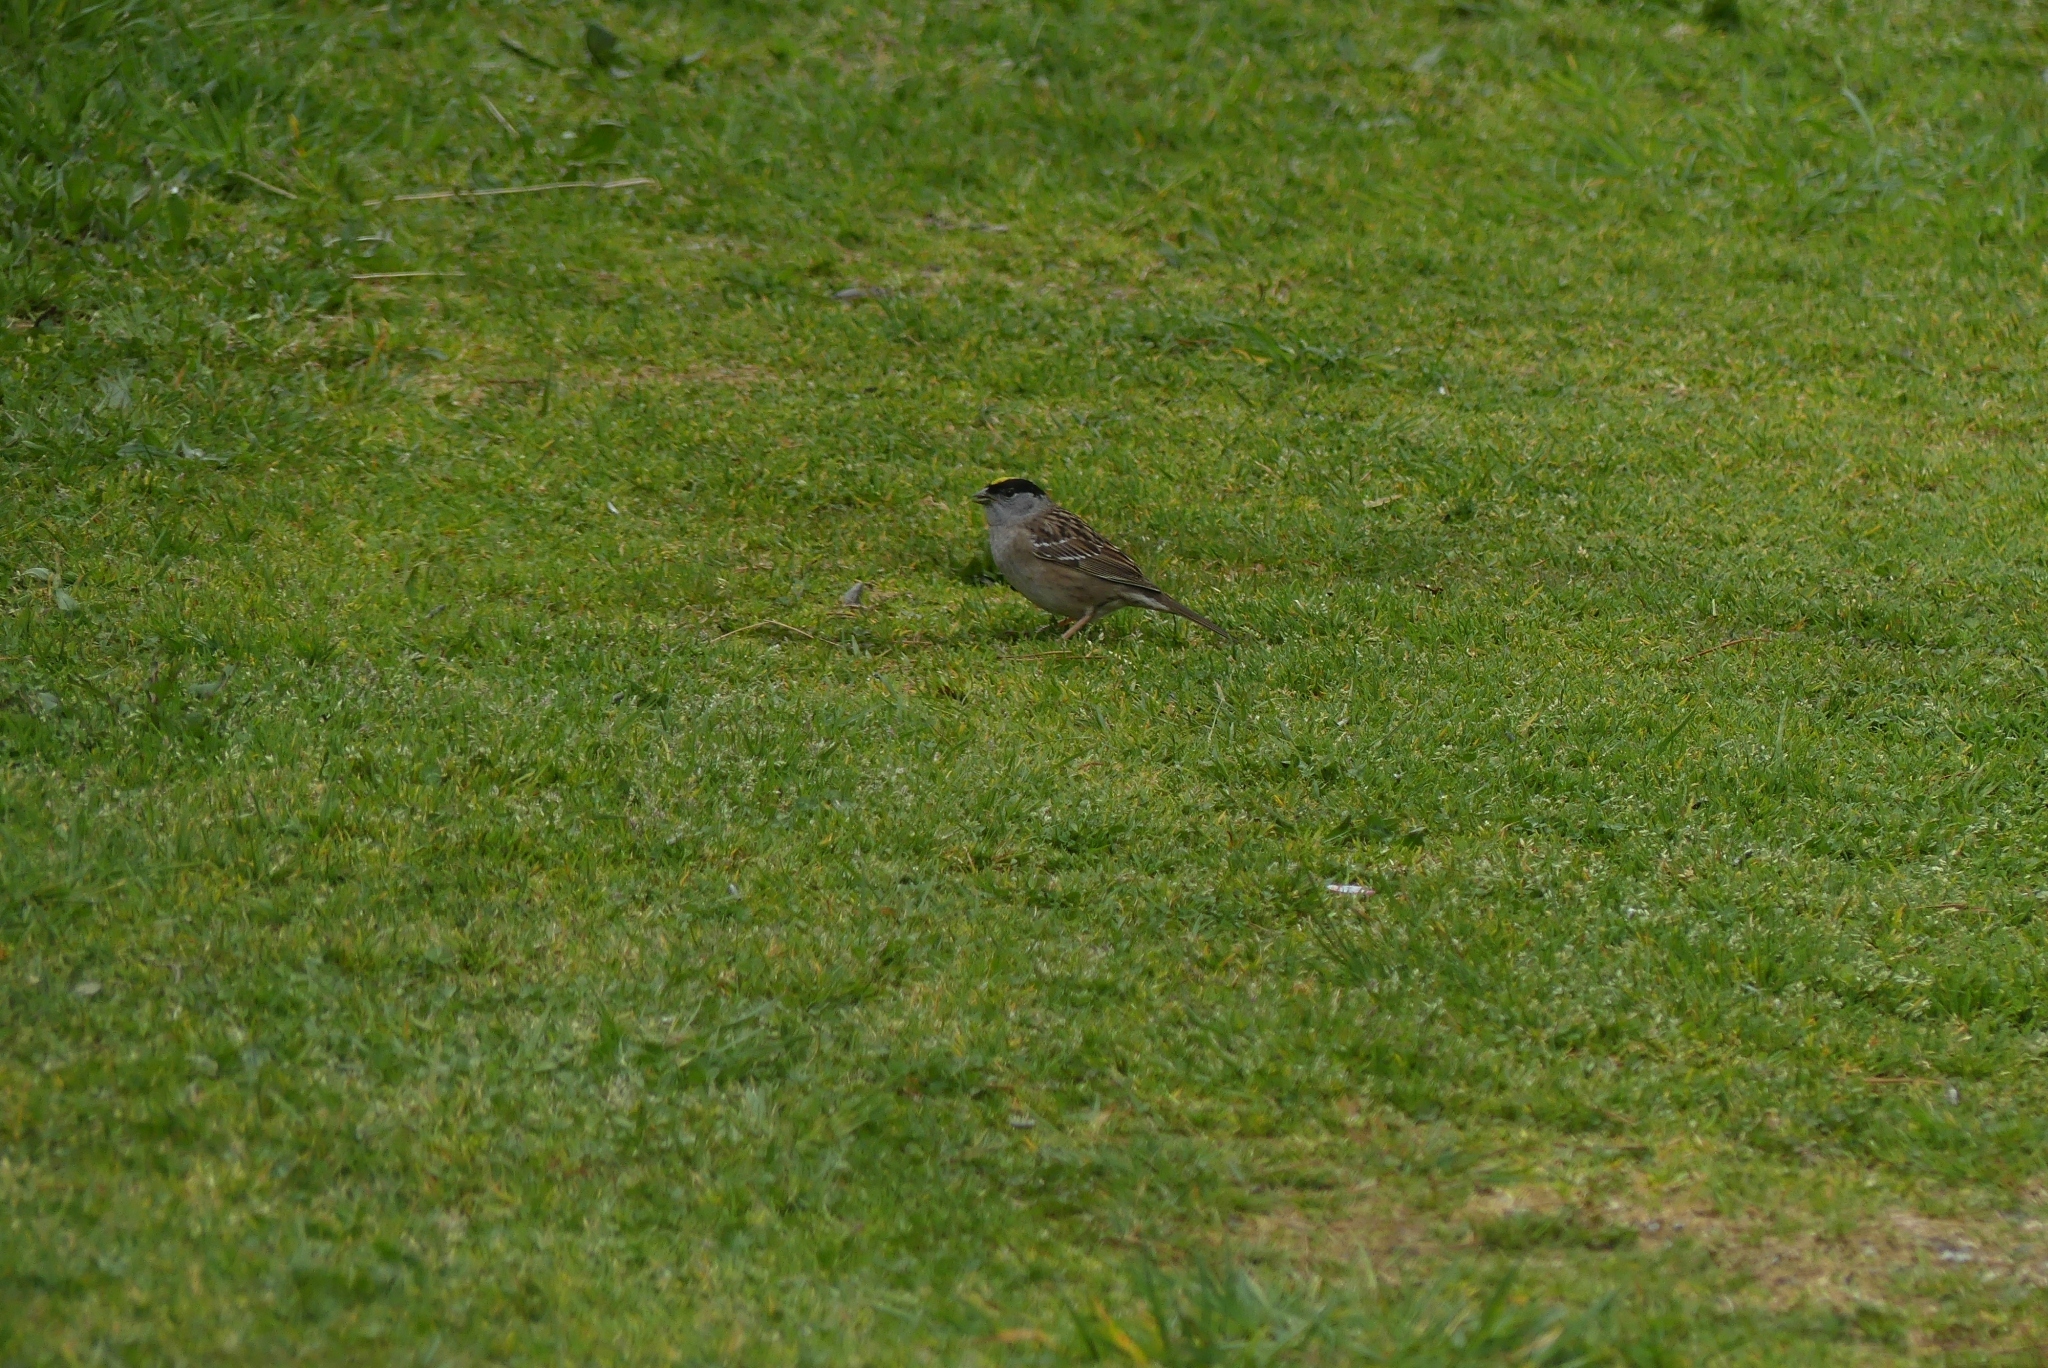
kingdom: Animalia
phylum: Chordata
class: Aves
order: Passeriformes
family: Passerellidae
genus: Zonotrichia
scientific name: Zonotrichia atricapilla
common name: Golden-crowned sparrow
